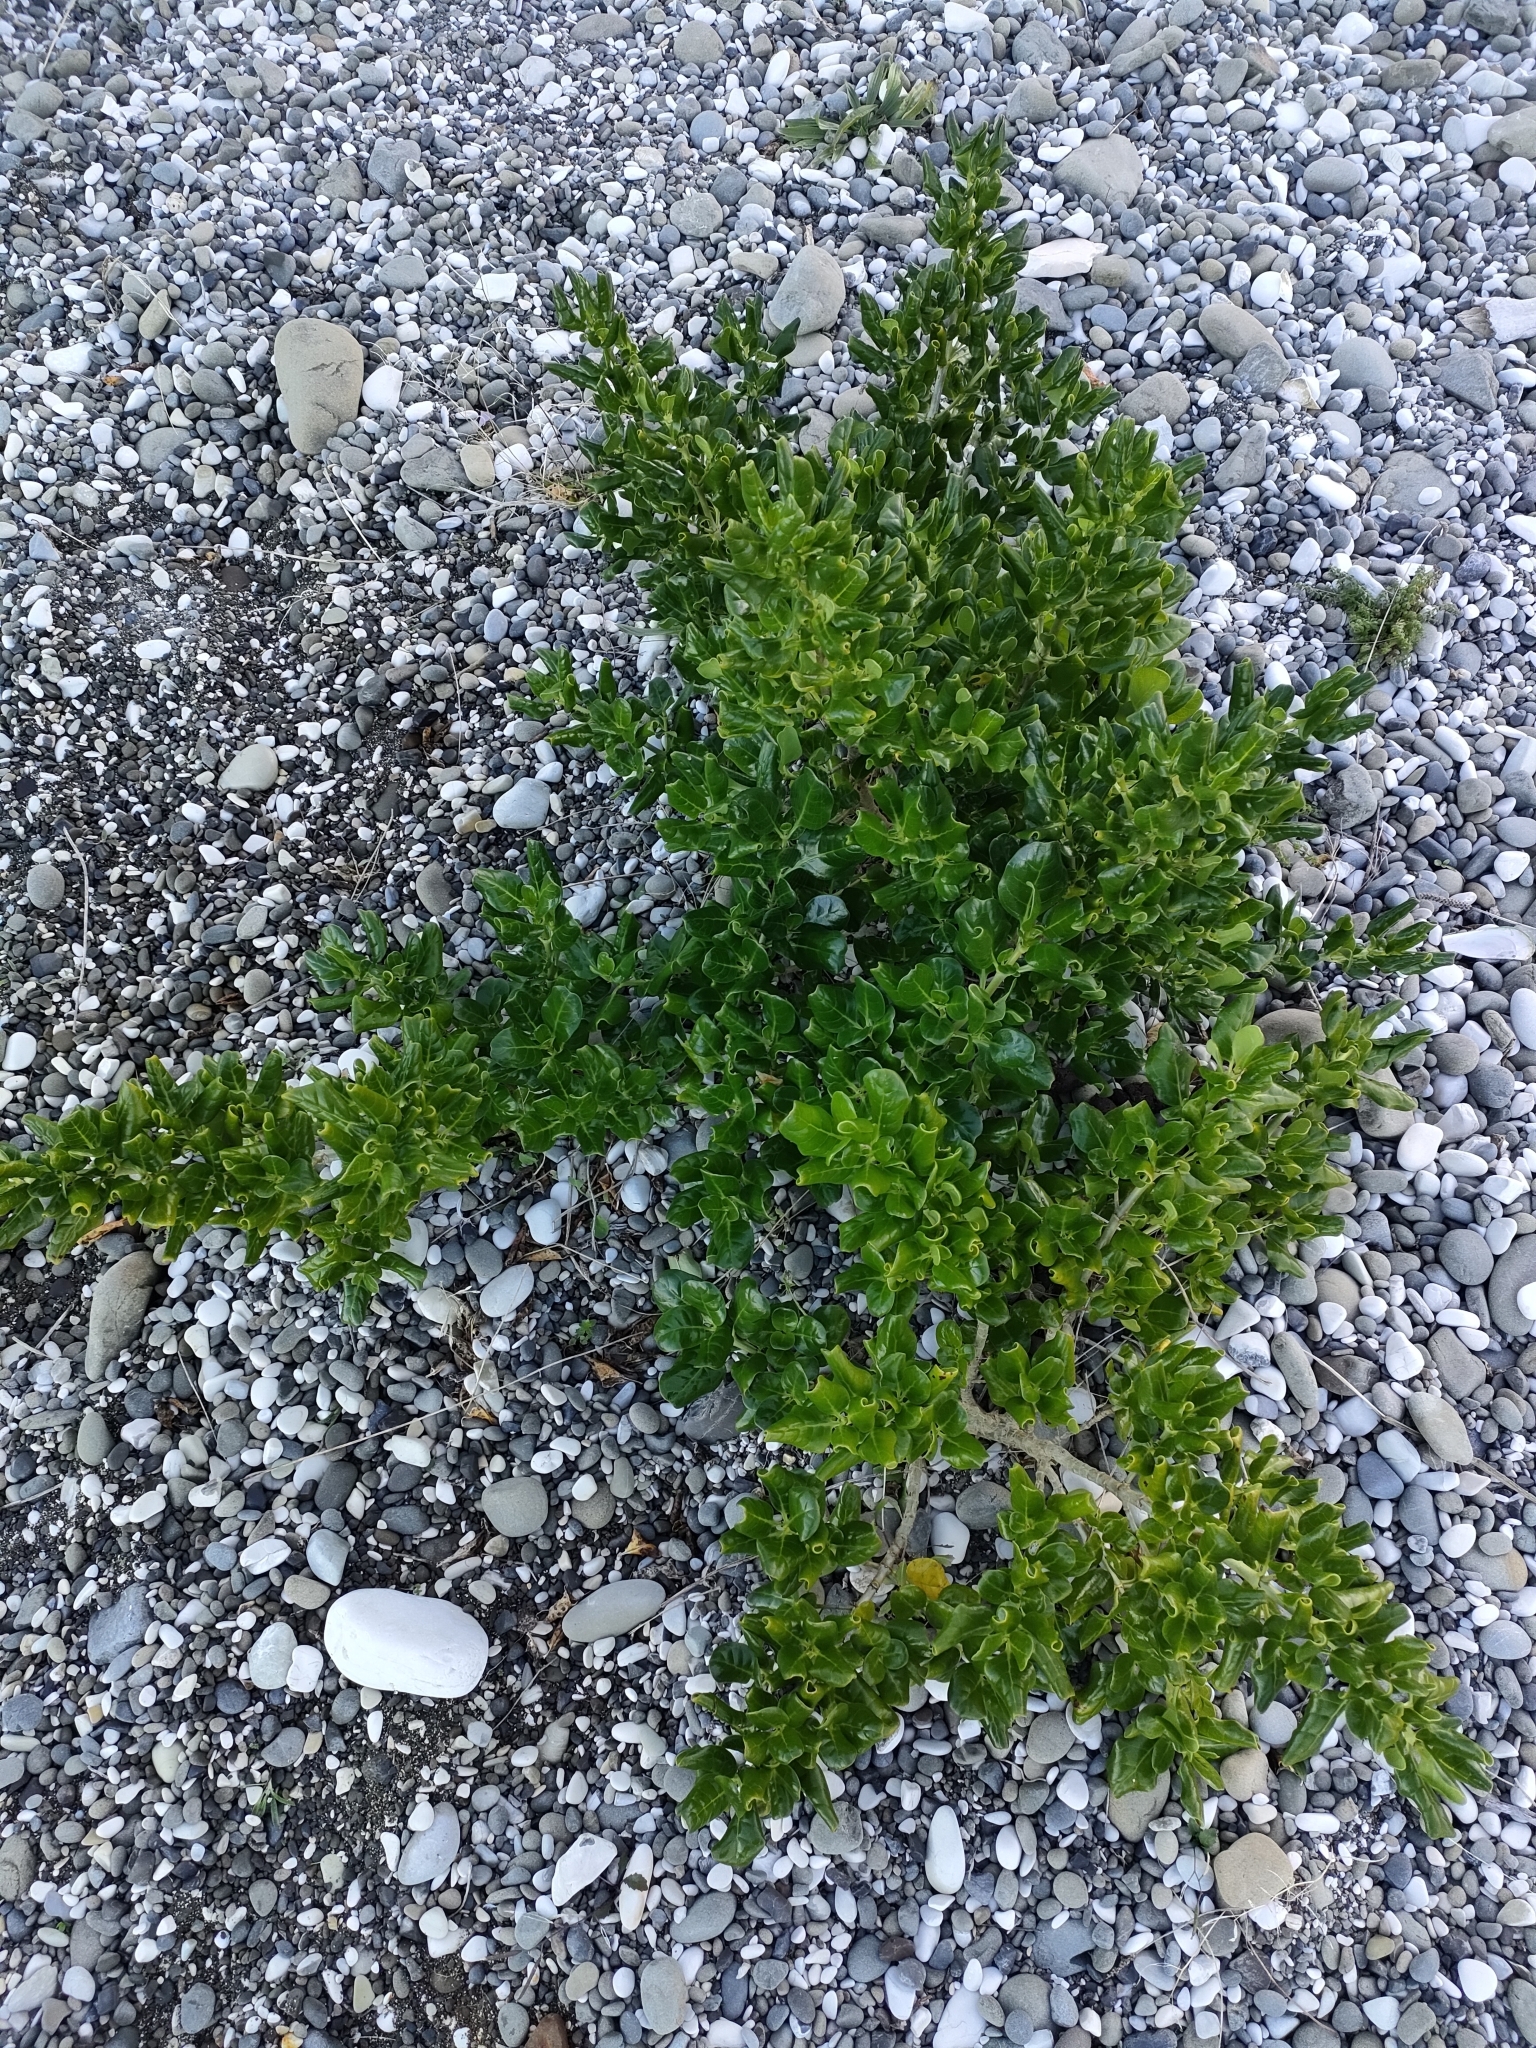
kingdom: Plantae
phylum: Tracheophyta
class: Magnoliopsida
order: Gentianales
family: Rubiaceae
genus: Coprosma
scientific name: Coprosma repens
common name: Tree bedstraw
